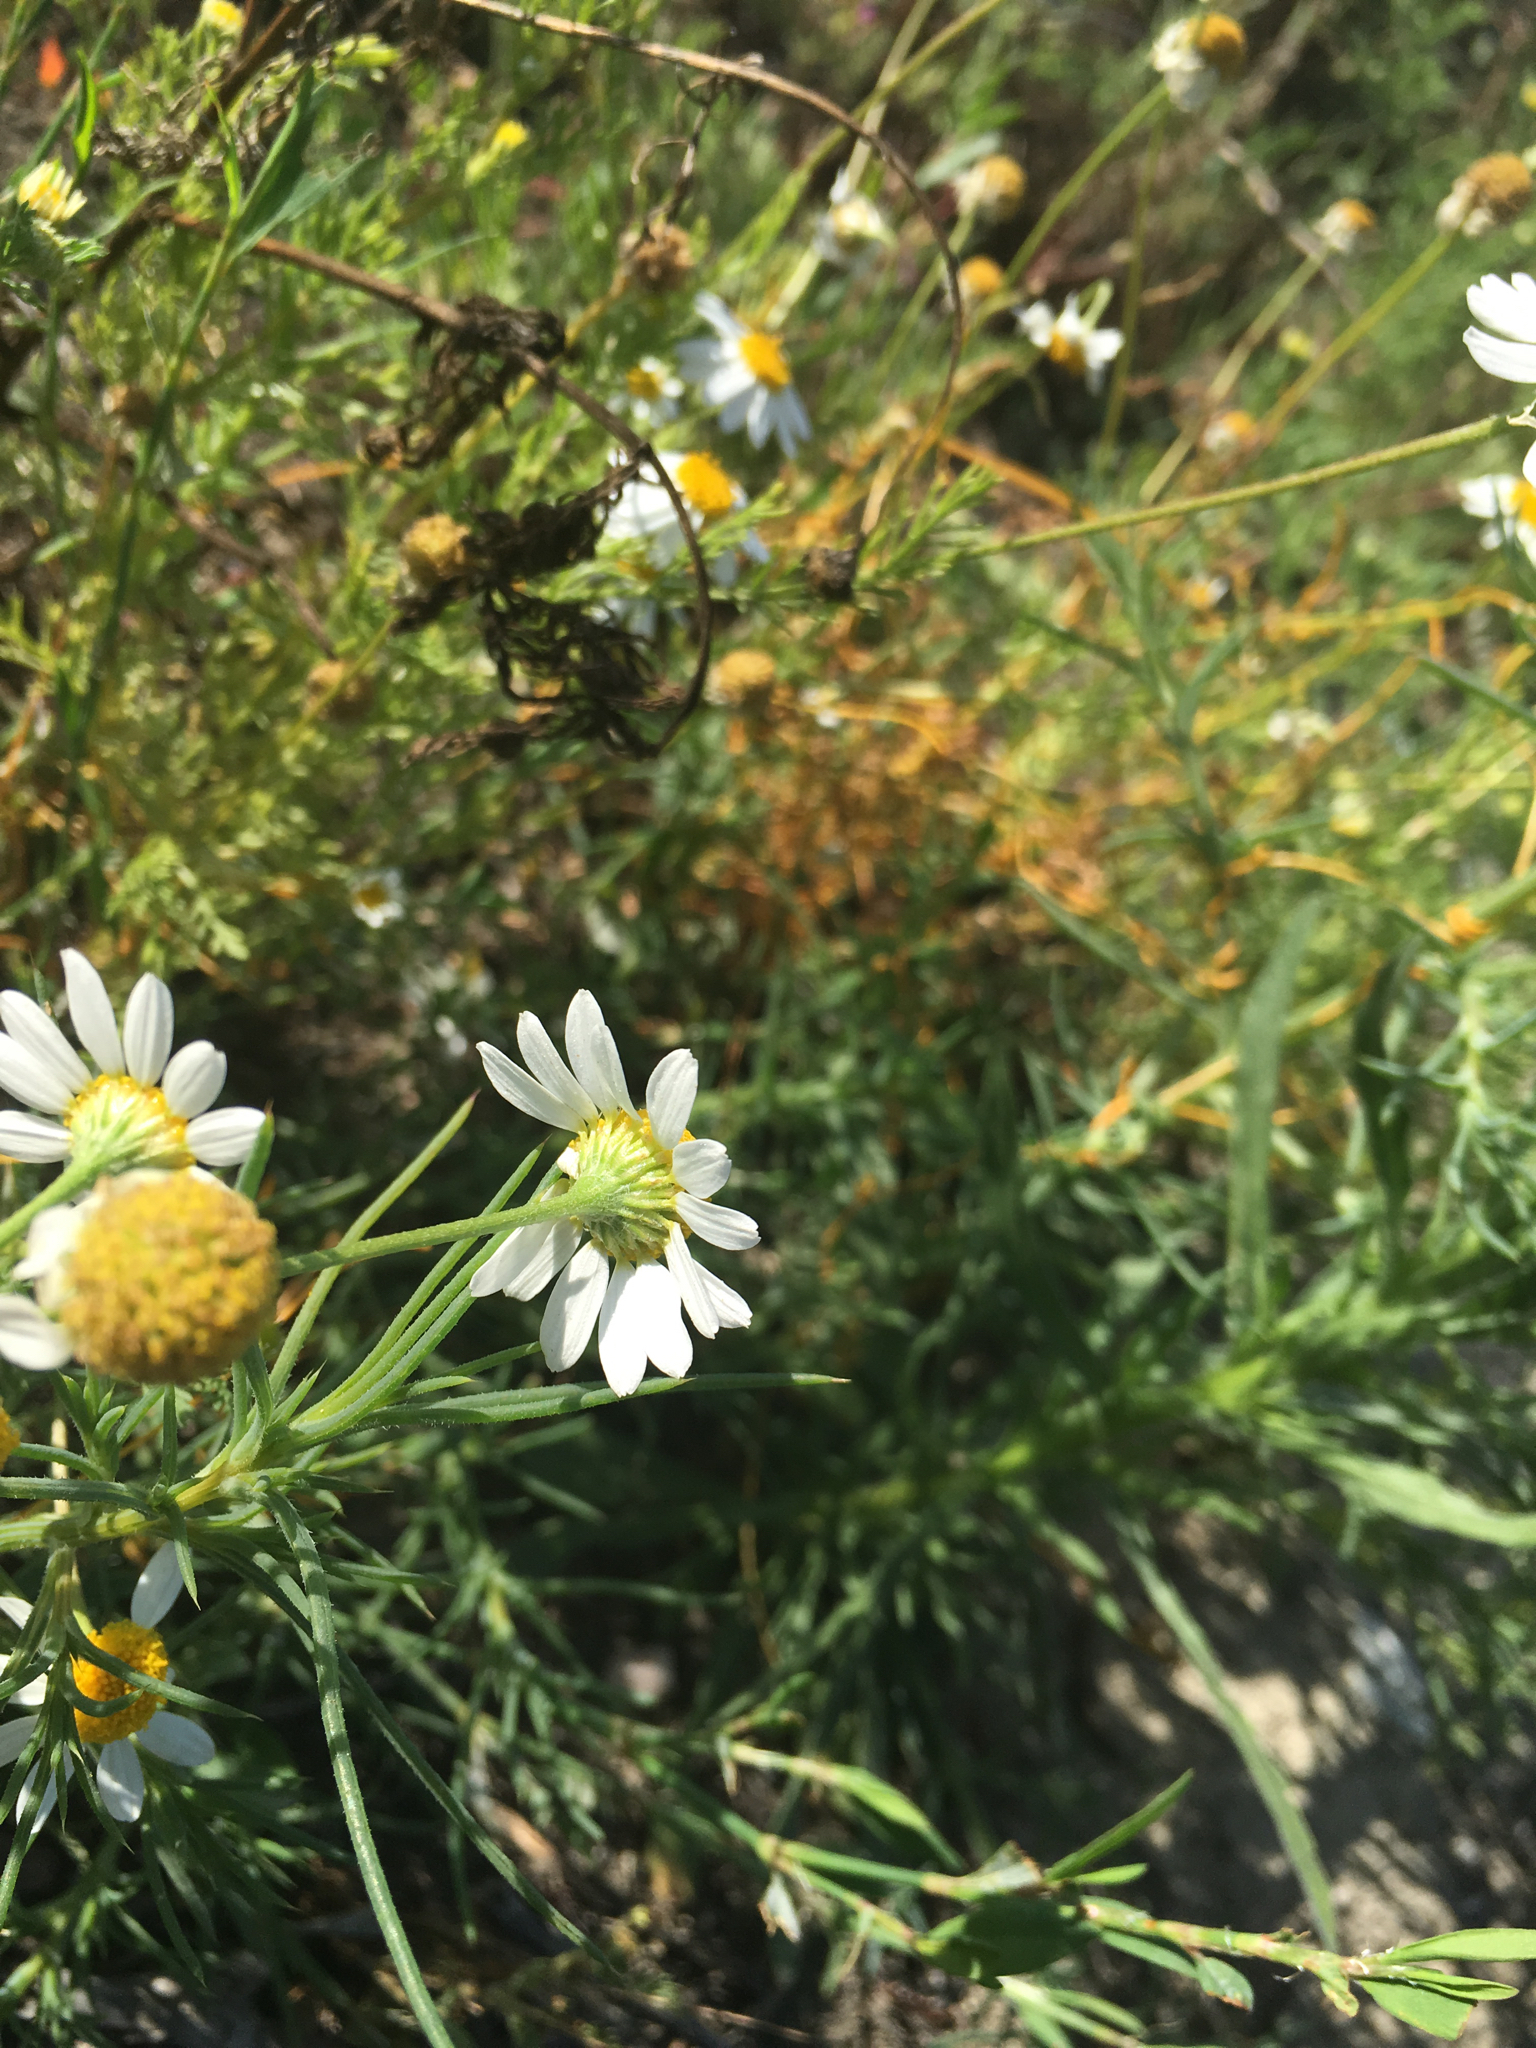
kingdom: Plantae
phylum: Tracheophyta
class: Magnoliopsida
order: Asterales
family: Asteraceae
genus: Chamaemelum
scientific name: Chamaemelum fuscatum
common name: Chamomile
